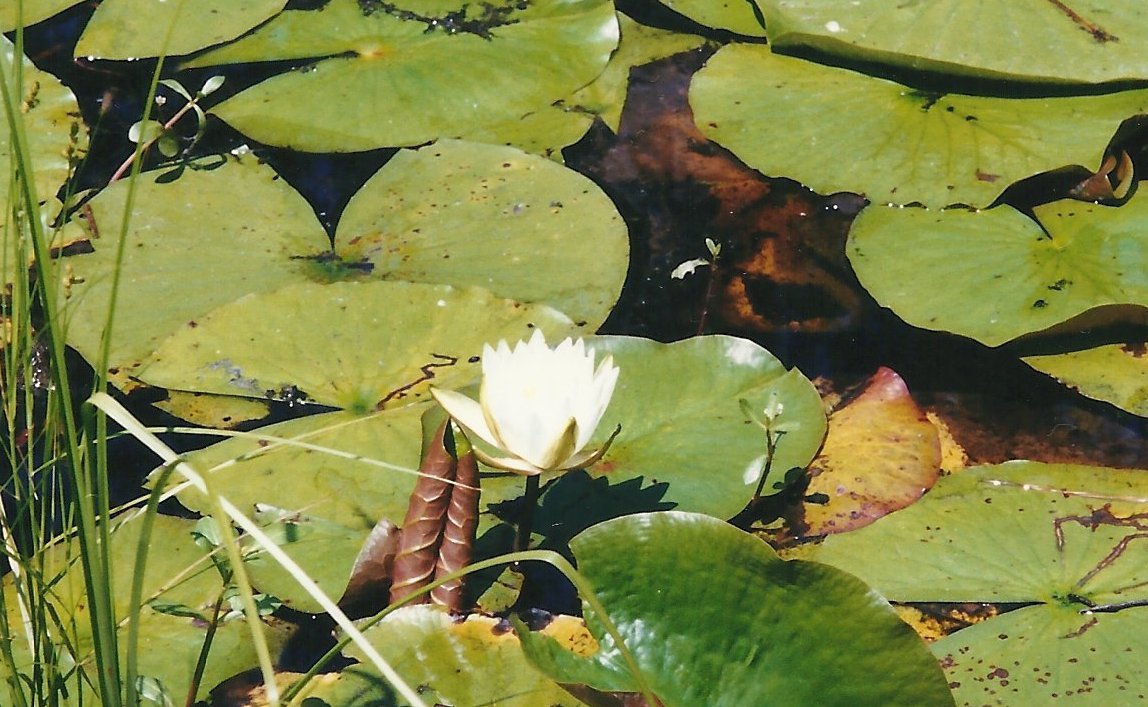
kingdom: Plantae
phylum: Tracheophyta
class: Magnoliopsida
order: Nymphaeales
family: Nymphaeaceae
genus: Nymphaea
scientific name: Nymphaea odorata
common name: Fragrant water-lily
